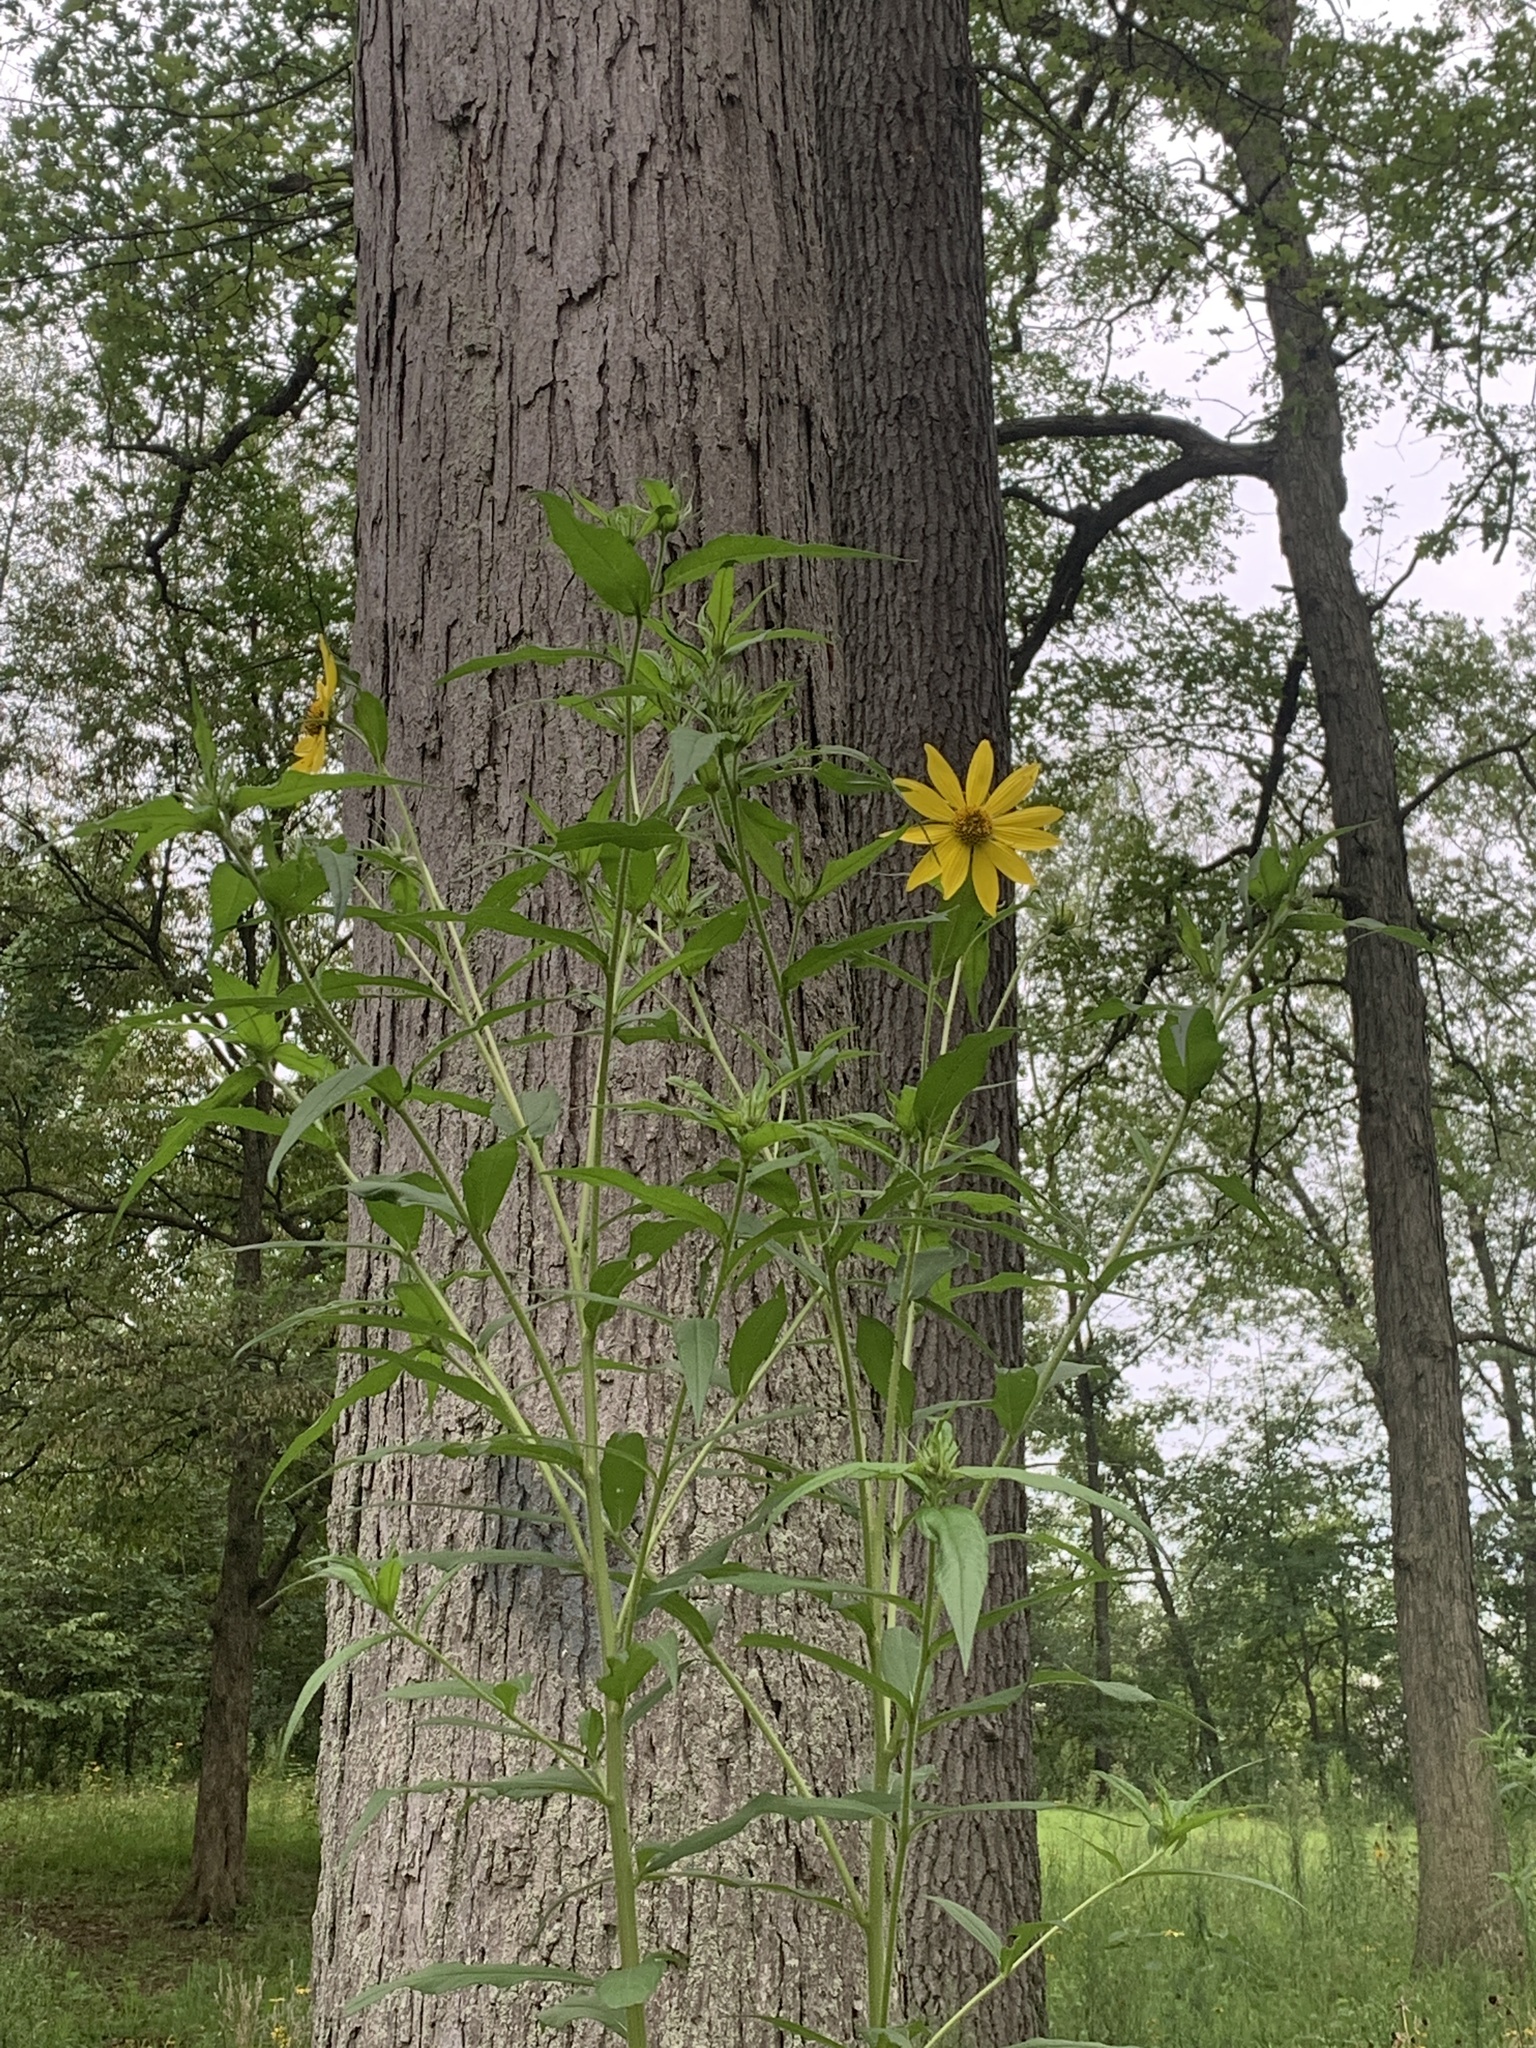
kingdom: Plantae
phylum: Tracheophyta
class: Magnoliopsida
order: Asterales
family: Asteraceae
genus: Helianthus
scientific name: Helianthus giganteus
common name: Giant sunflower
